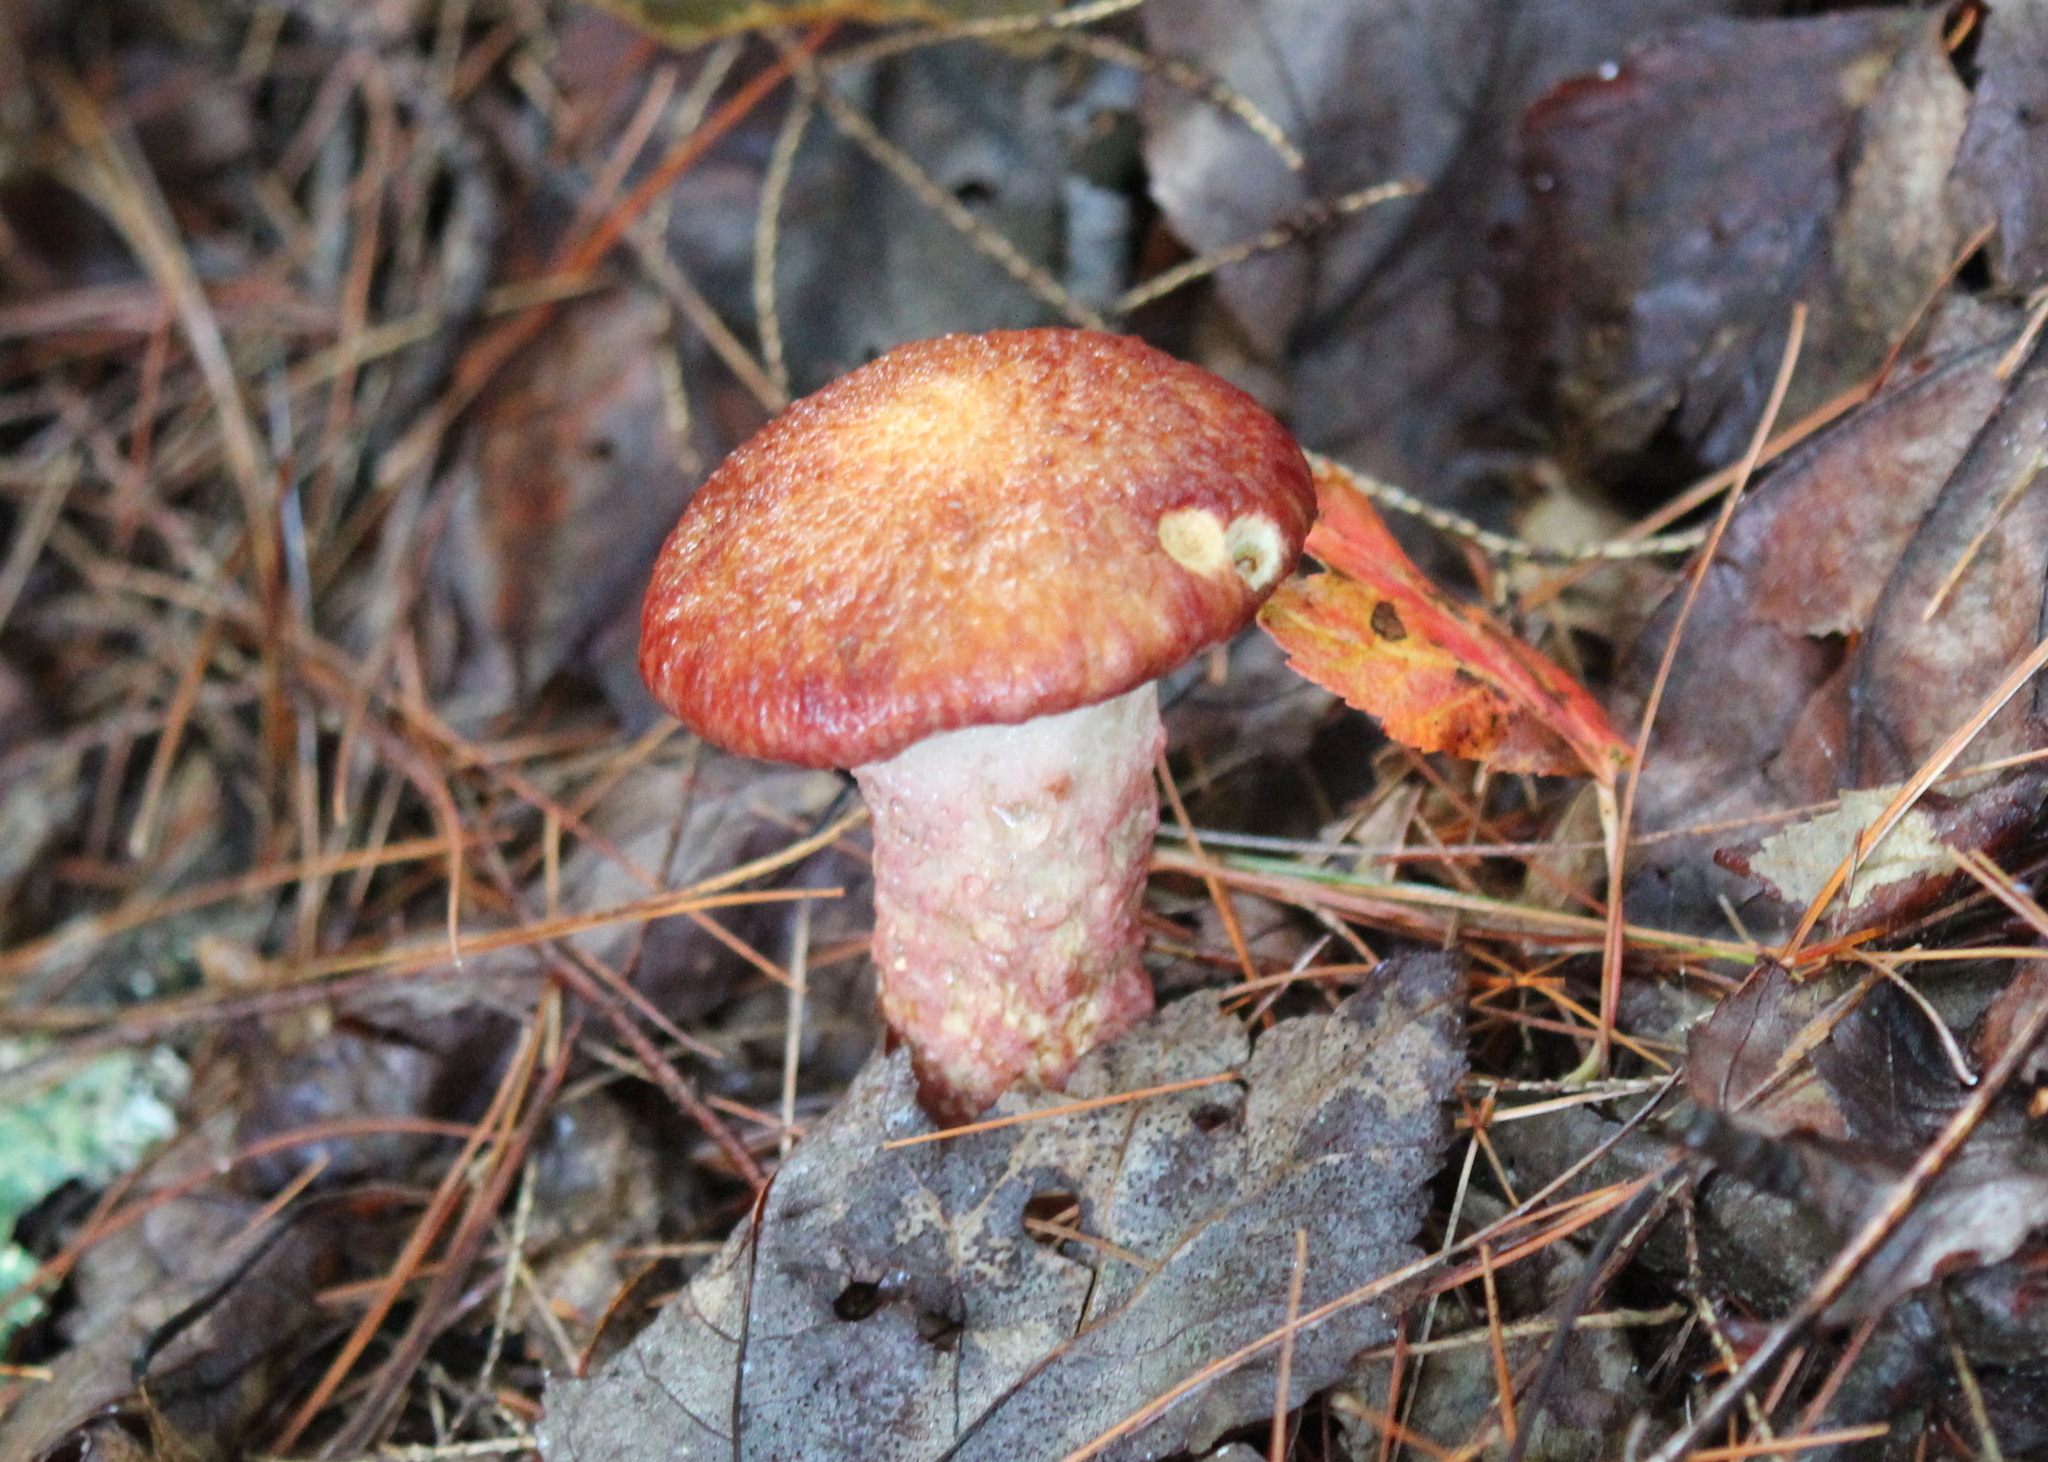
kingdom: Fungi
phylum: Basidiomycota
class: Agaricomycetes
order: Boletales
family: Suillaceae
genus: Suillus
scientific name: Suillus spraguei
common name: Painted suillus
